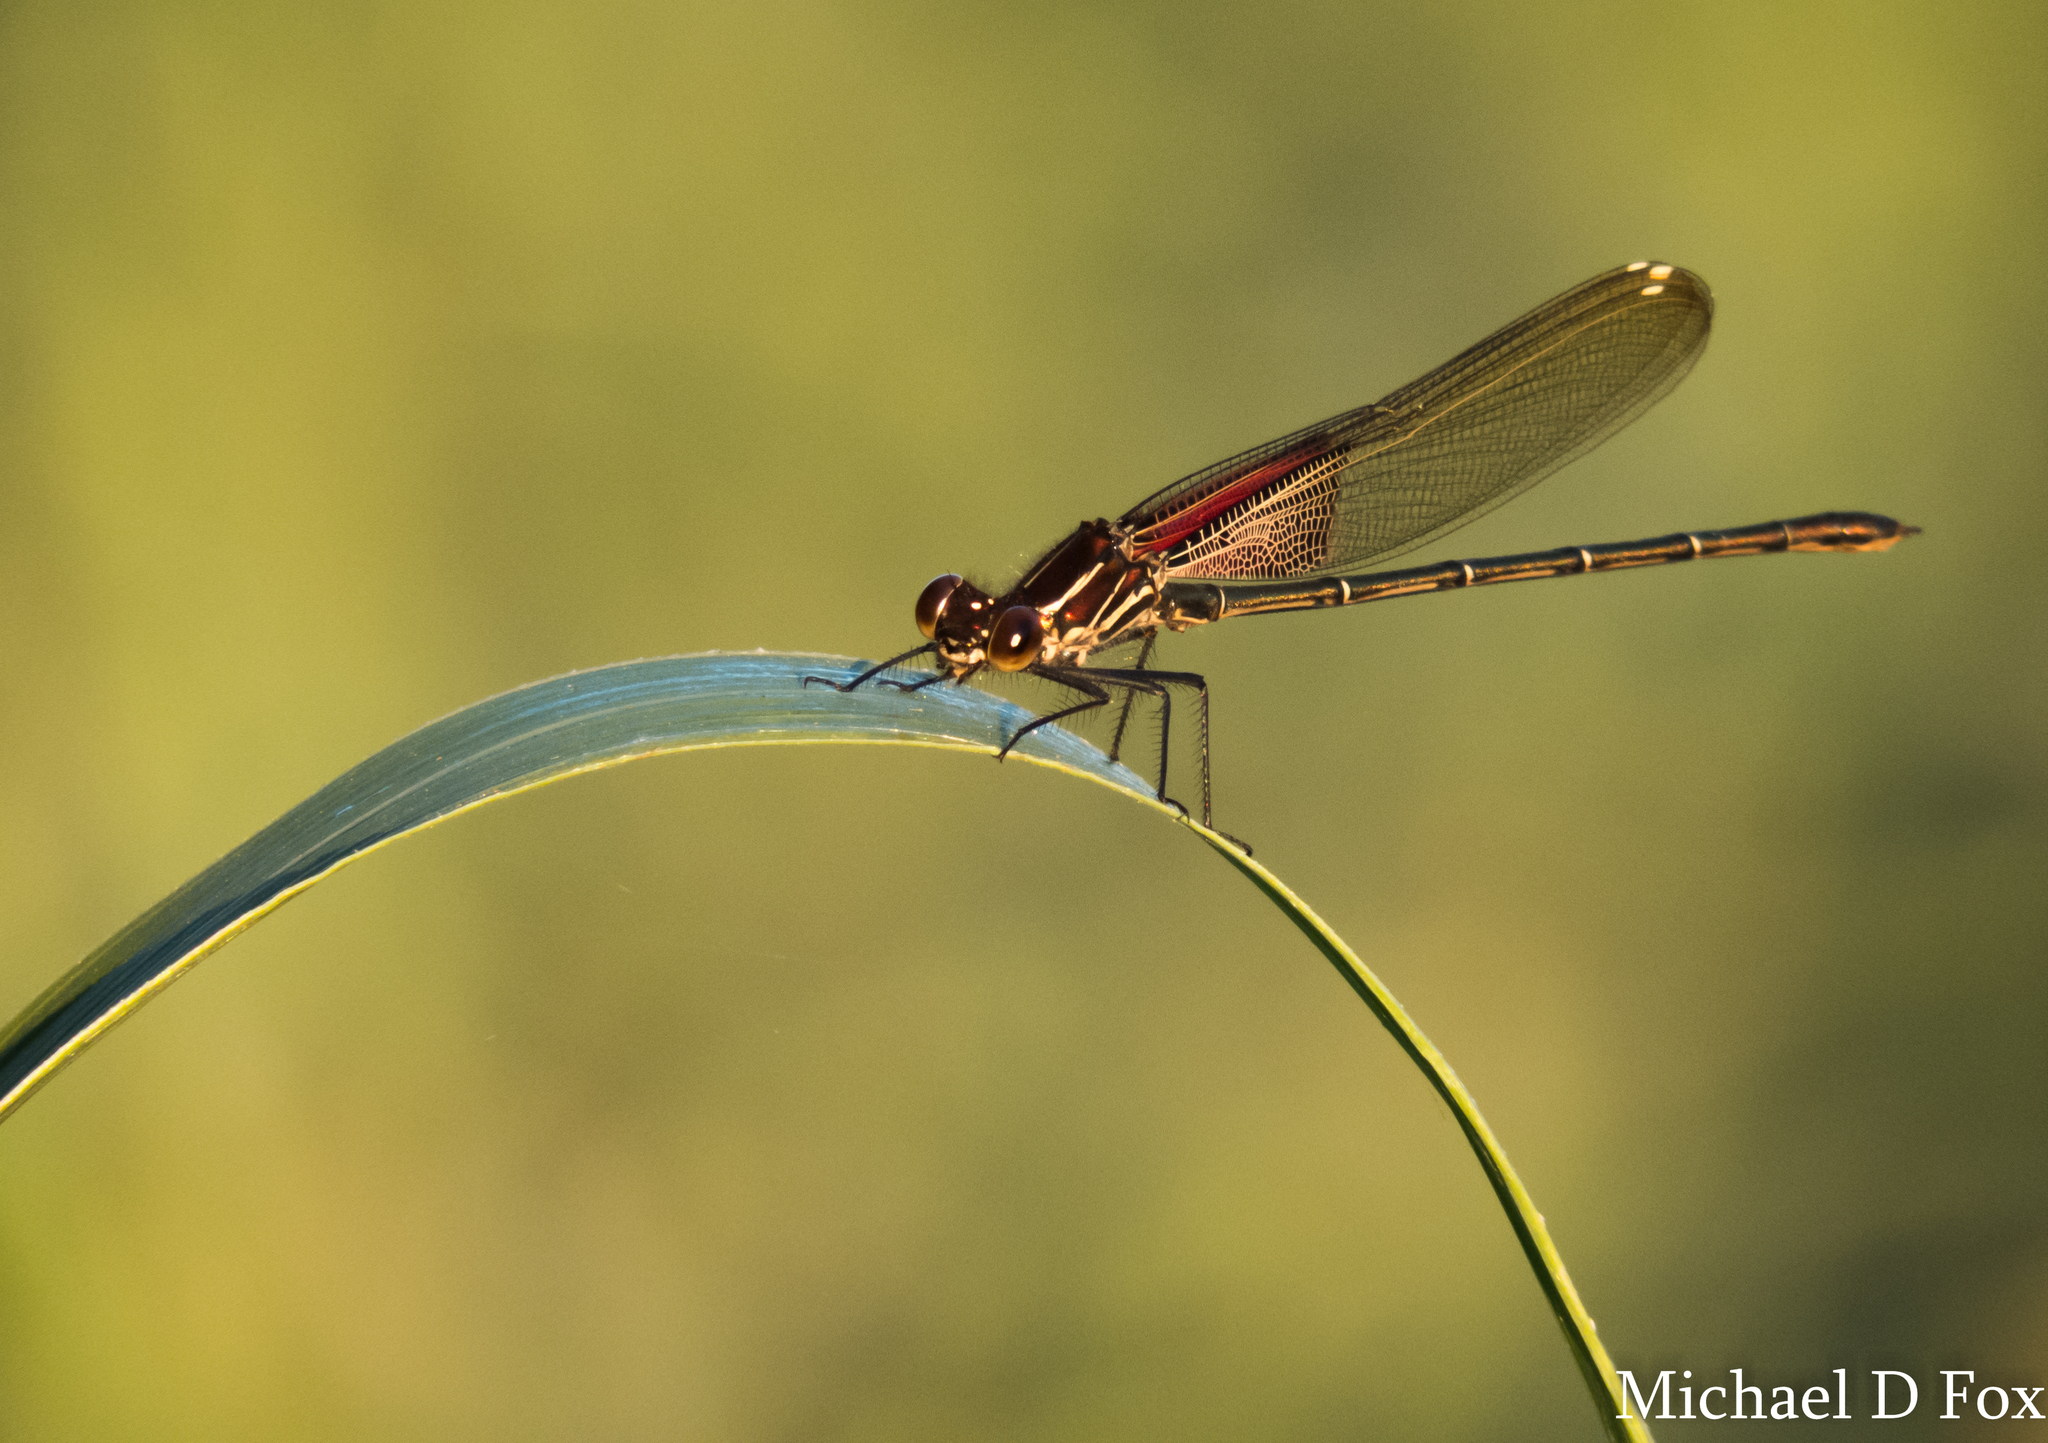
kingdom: Animalia
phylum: Arthropoda
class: Insecta
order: Odonata
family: Calopterygidae
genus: Hetaerina
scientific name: Hetaerina americana
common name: American rubyspot
